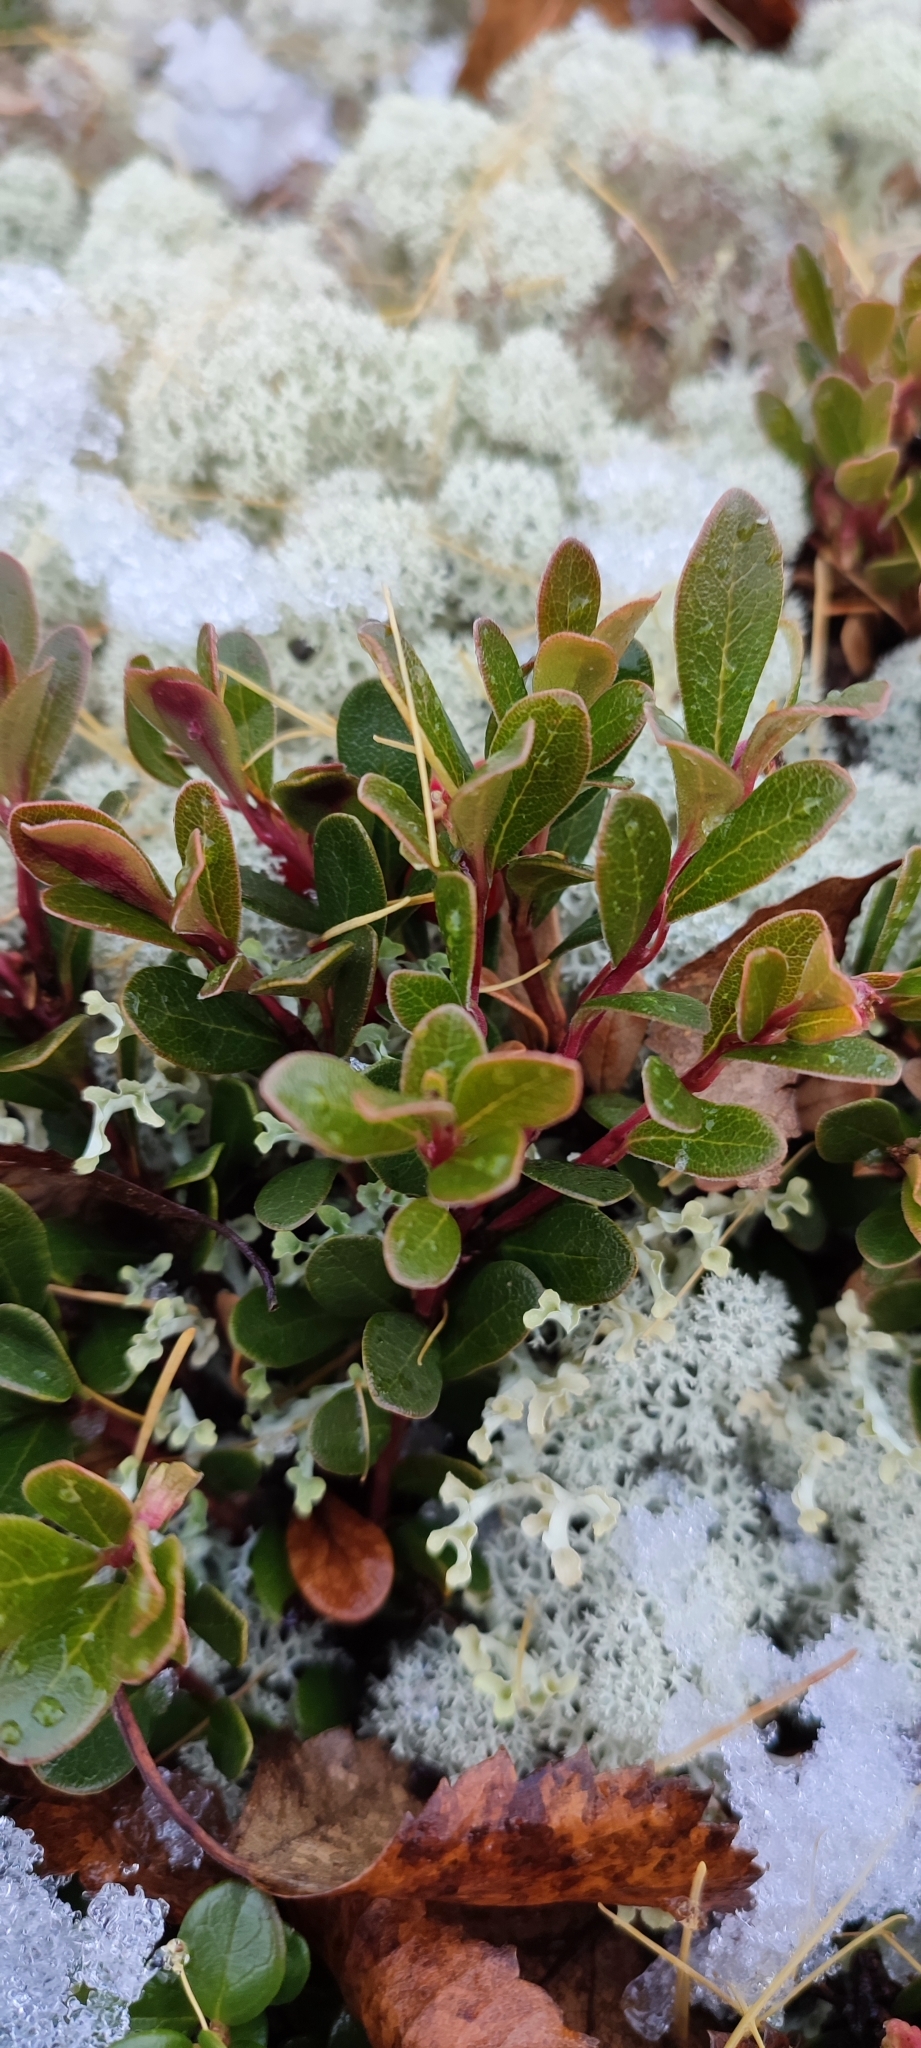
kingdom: Plantae
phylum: Tracheophyta
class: Magnoliopsida
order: Ericales
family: Ericaceae
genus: Arctostaphylos
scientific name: Arctostaphylos uva-ursi
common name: Bearberry
